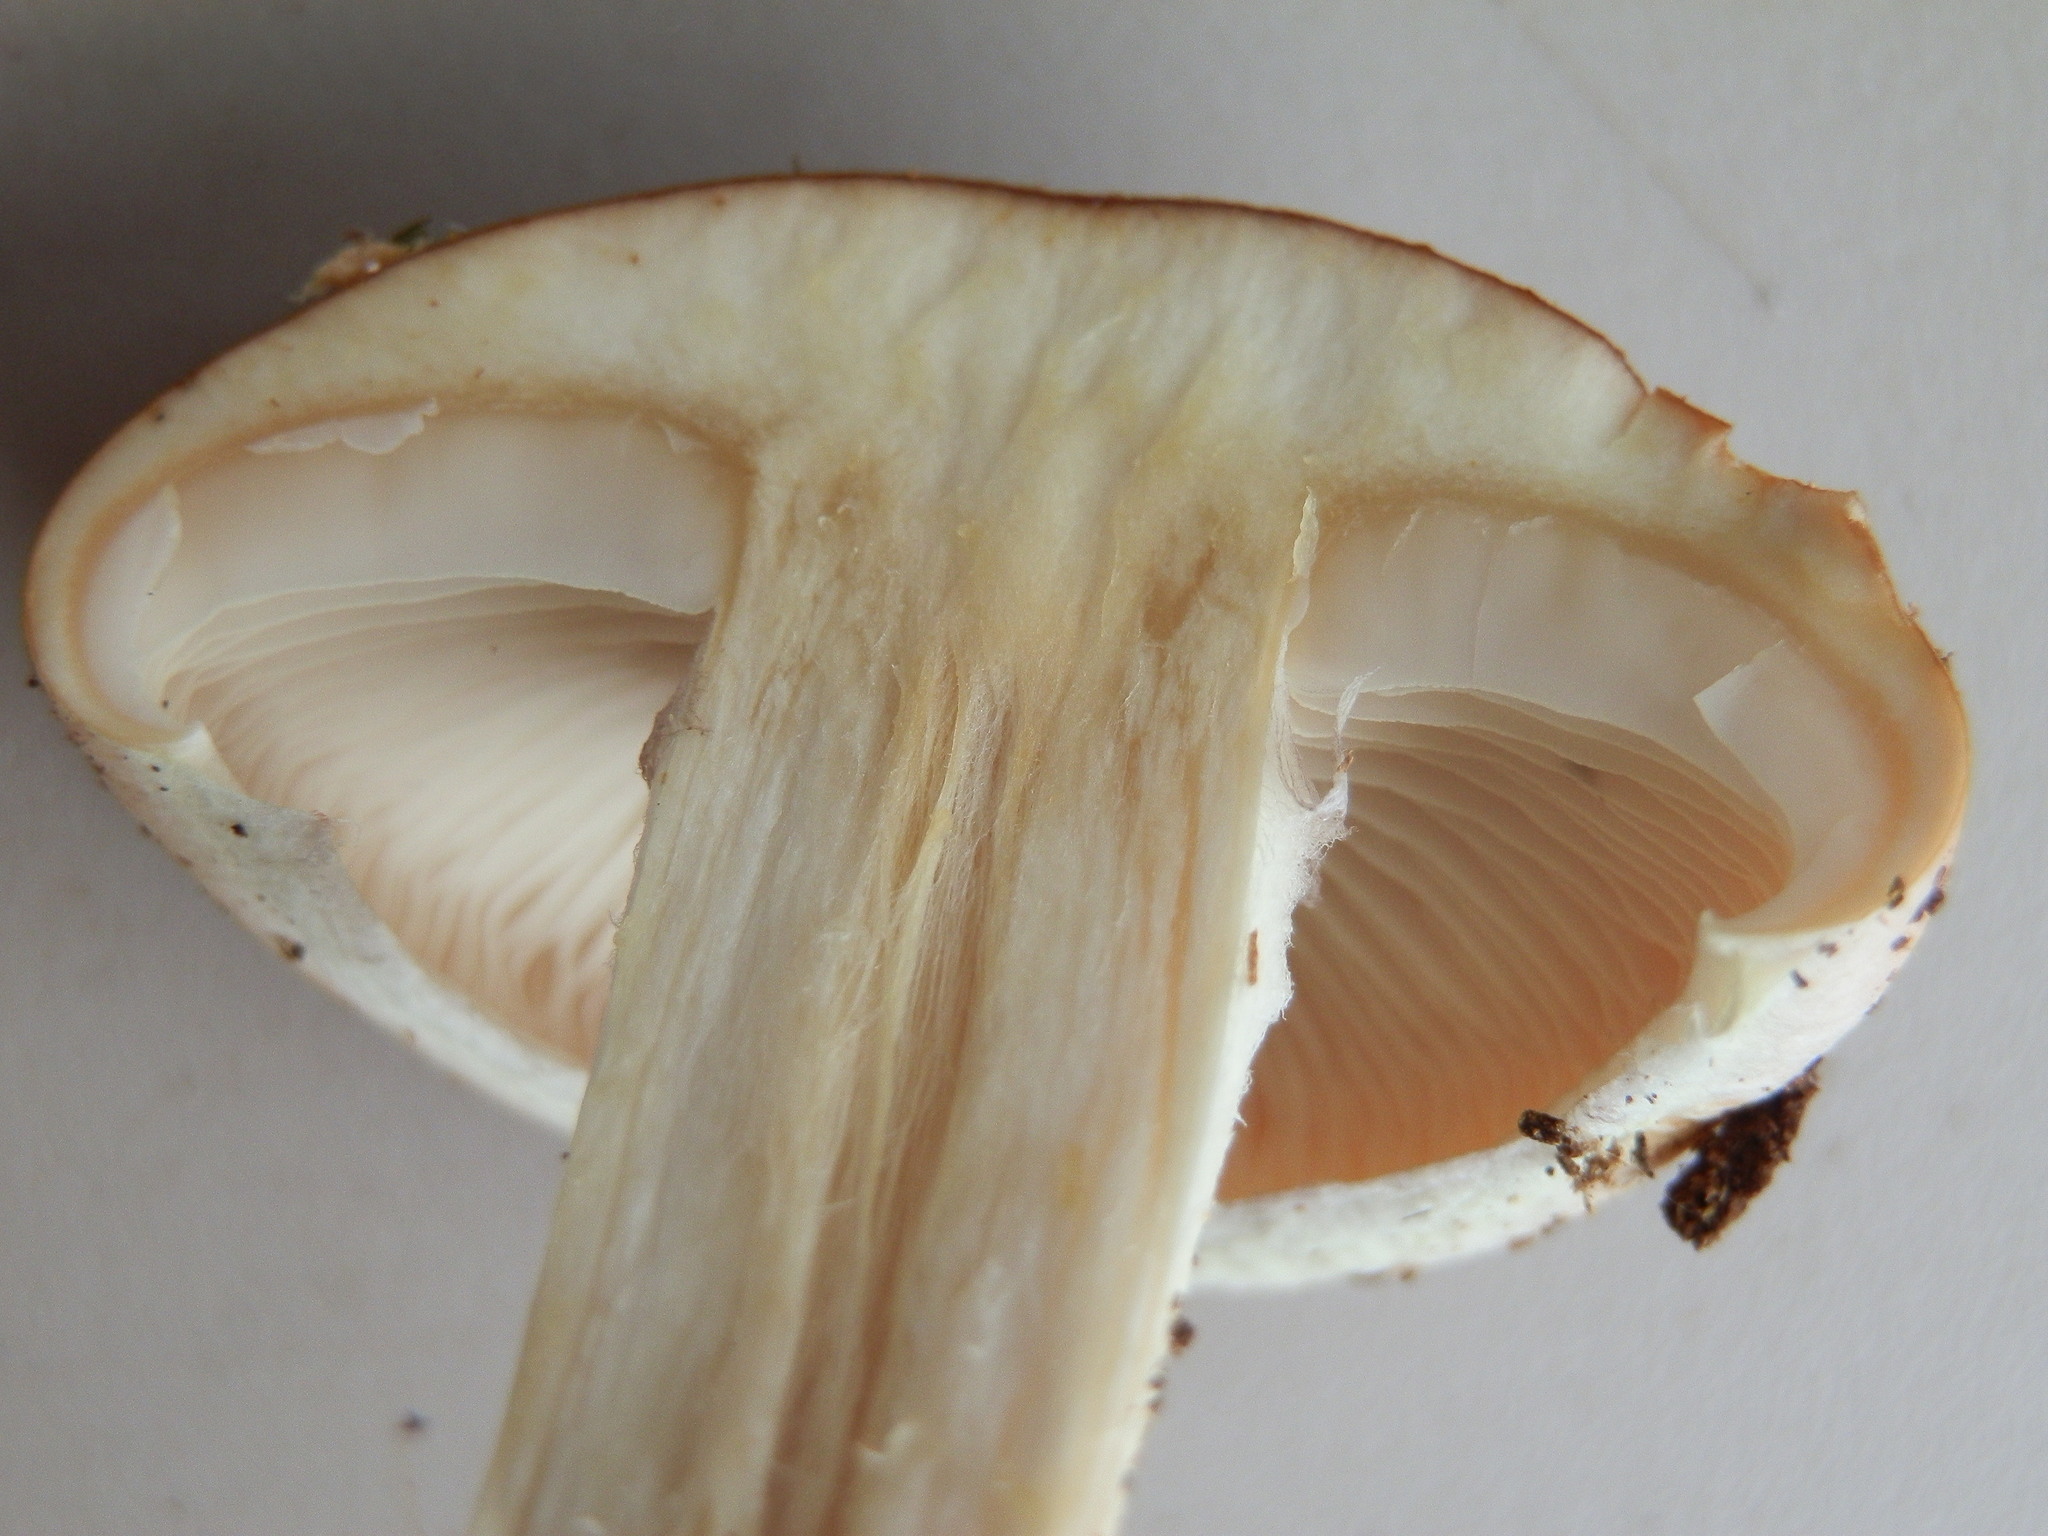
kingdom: Fungi
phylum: Basidiomycota
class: Agaricomycetes
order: Agaricales
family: Strophariaceae
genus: Hypholoma
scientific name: Hypholoma lateritium
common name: Brick caps
